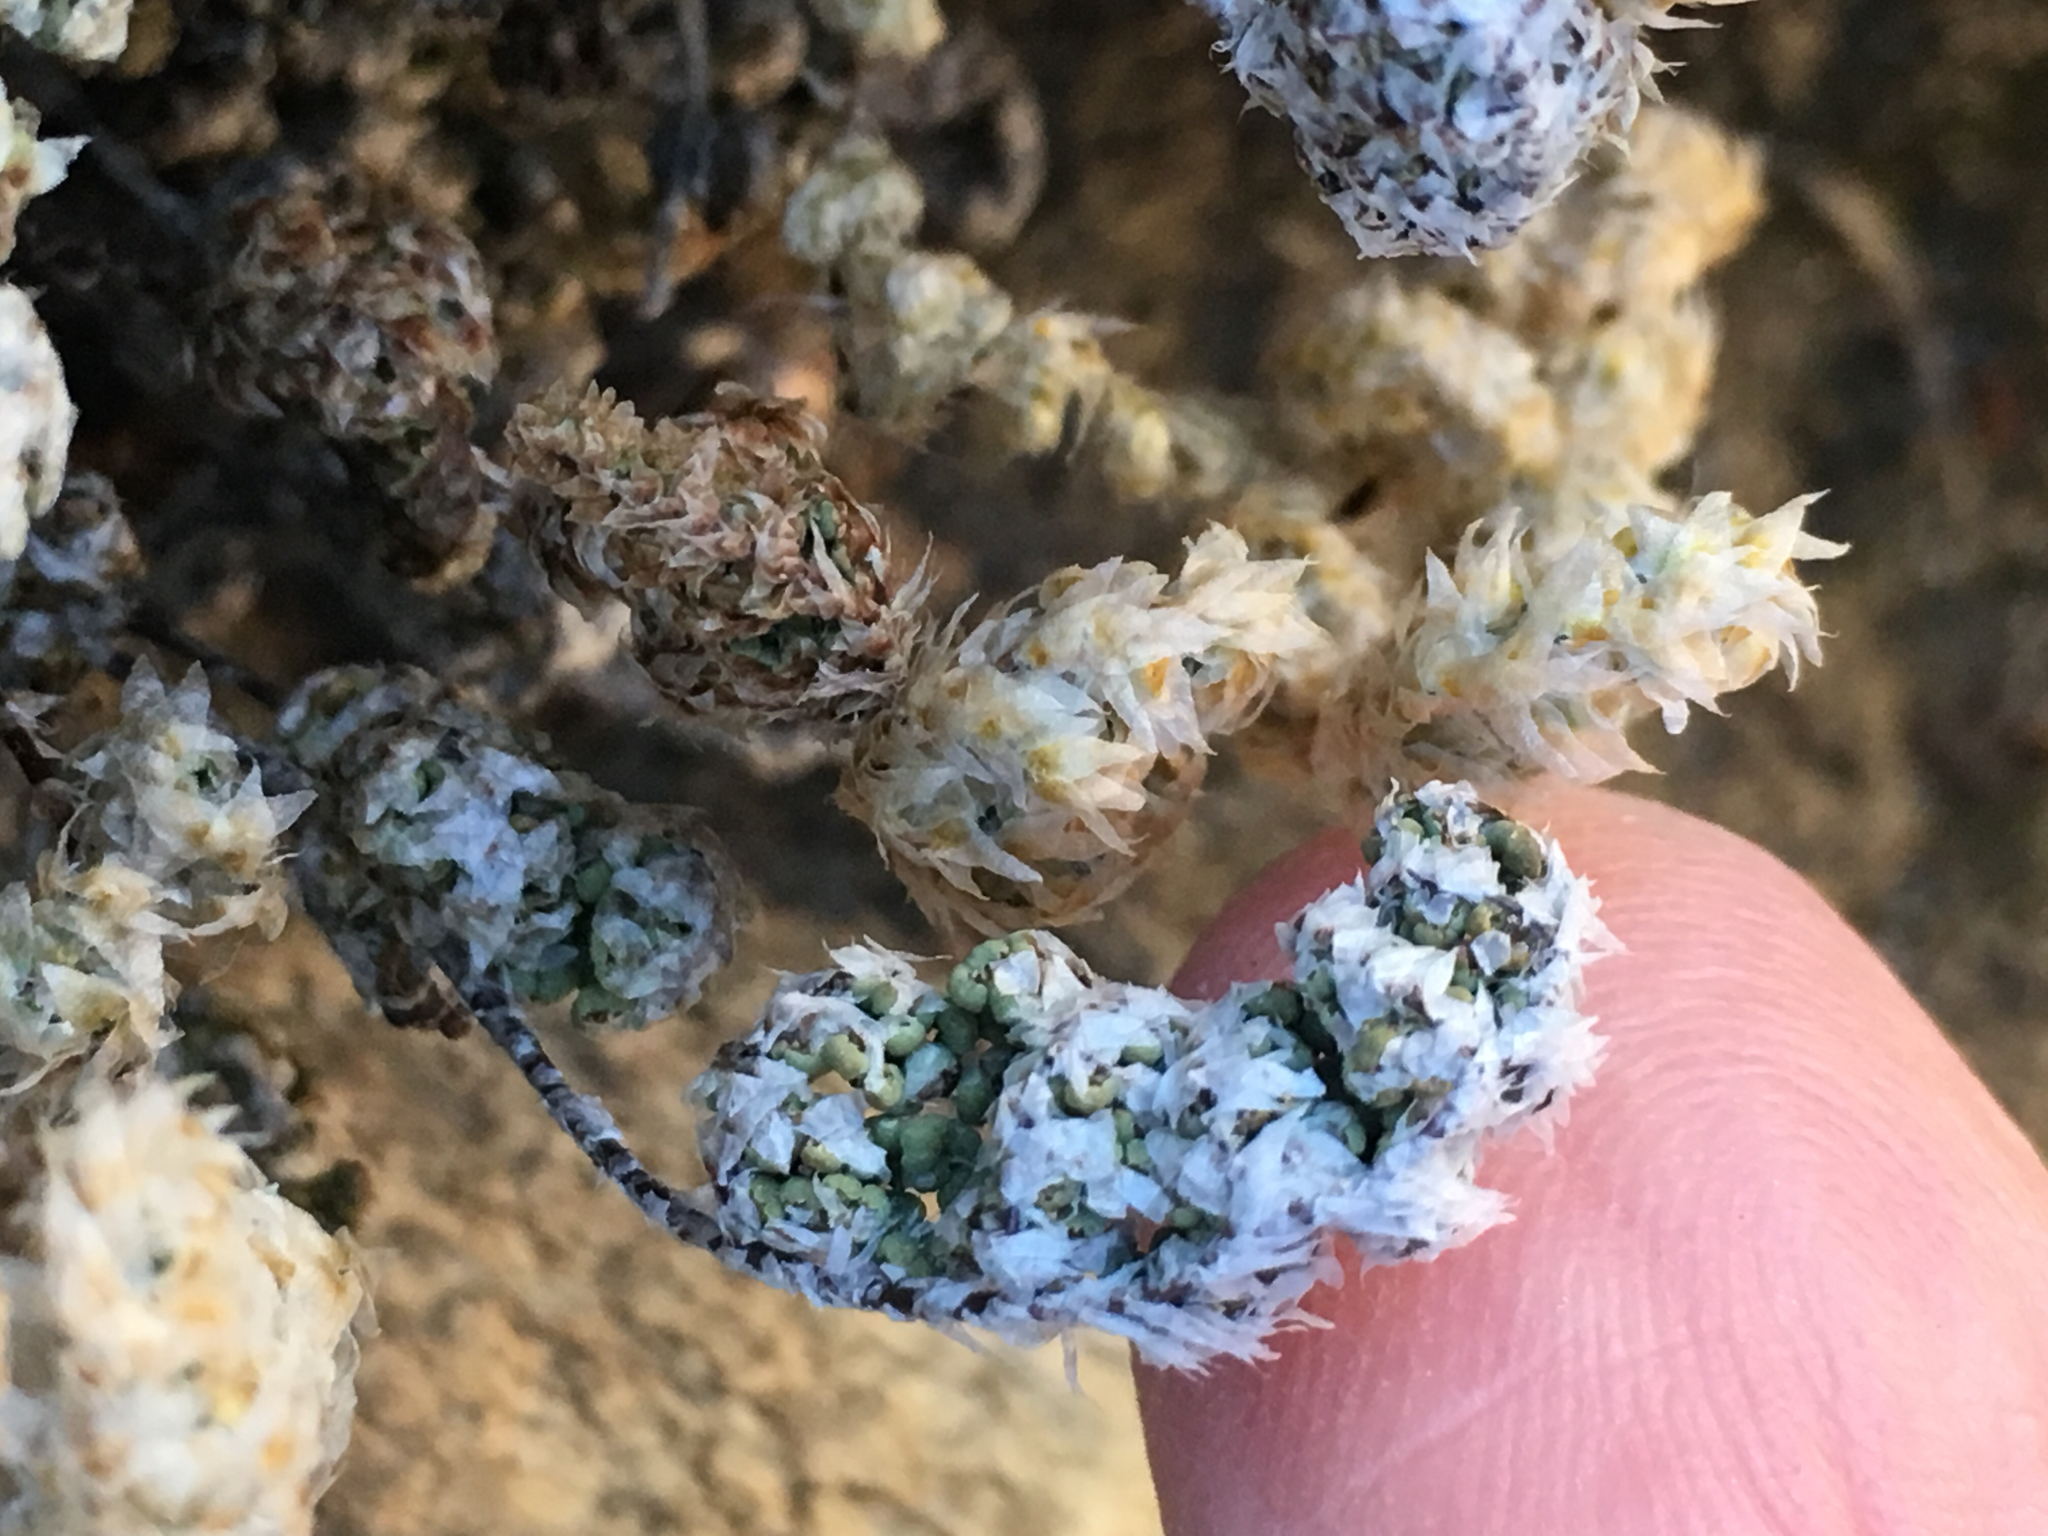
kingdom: Plantae
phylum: Tracheophyta
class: Polypodiopsida
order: Polypodiales
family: Pteridaceae
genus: Myriopteris
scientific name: Myriopteris covillei
